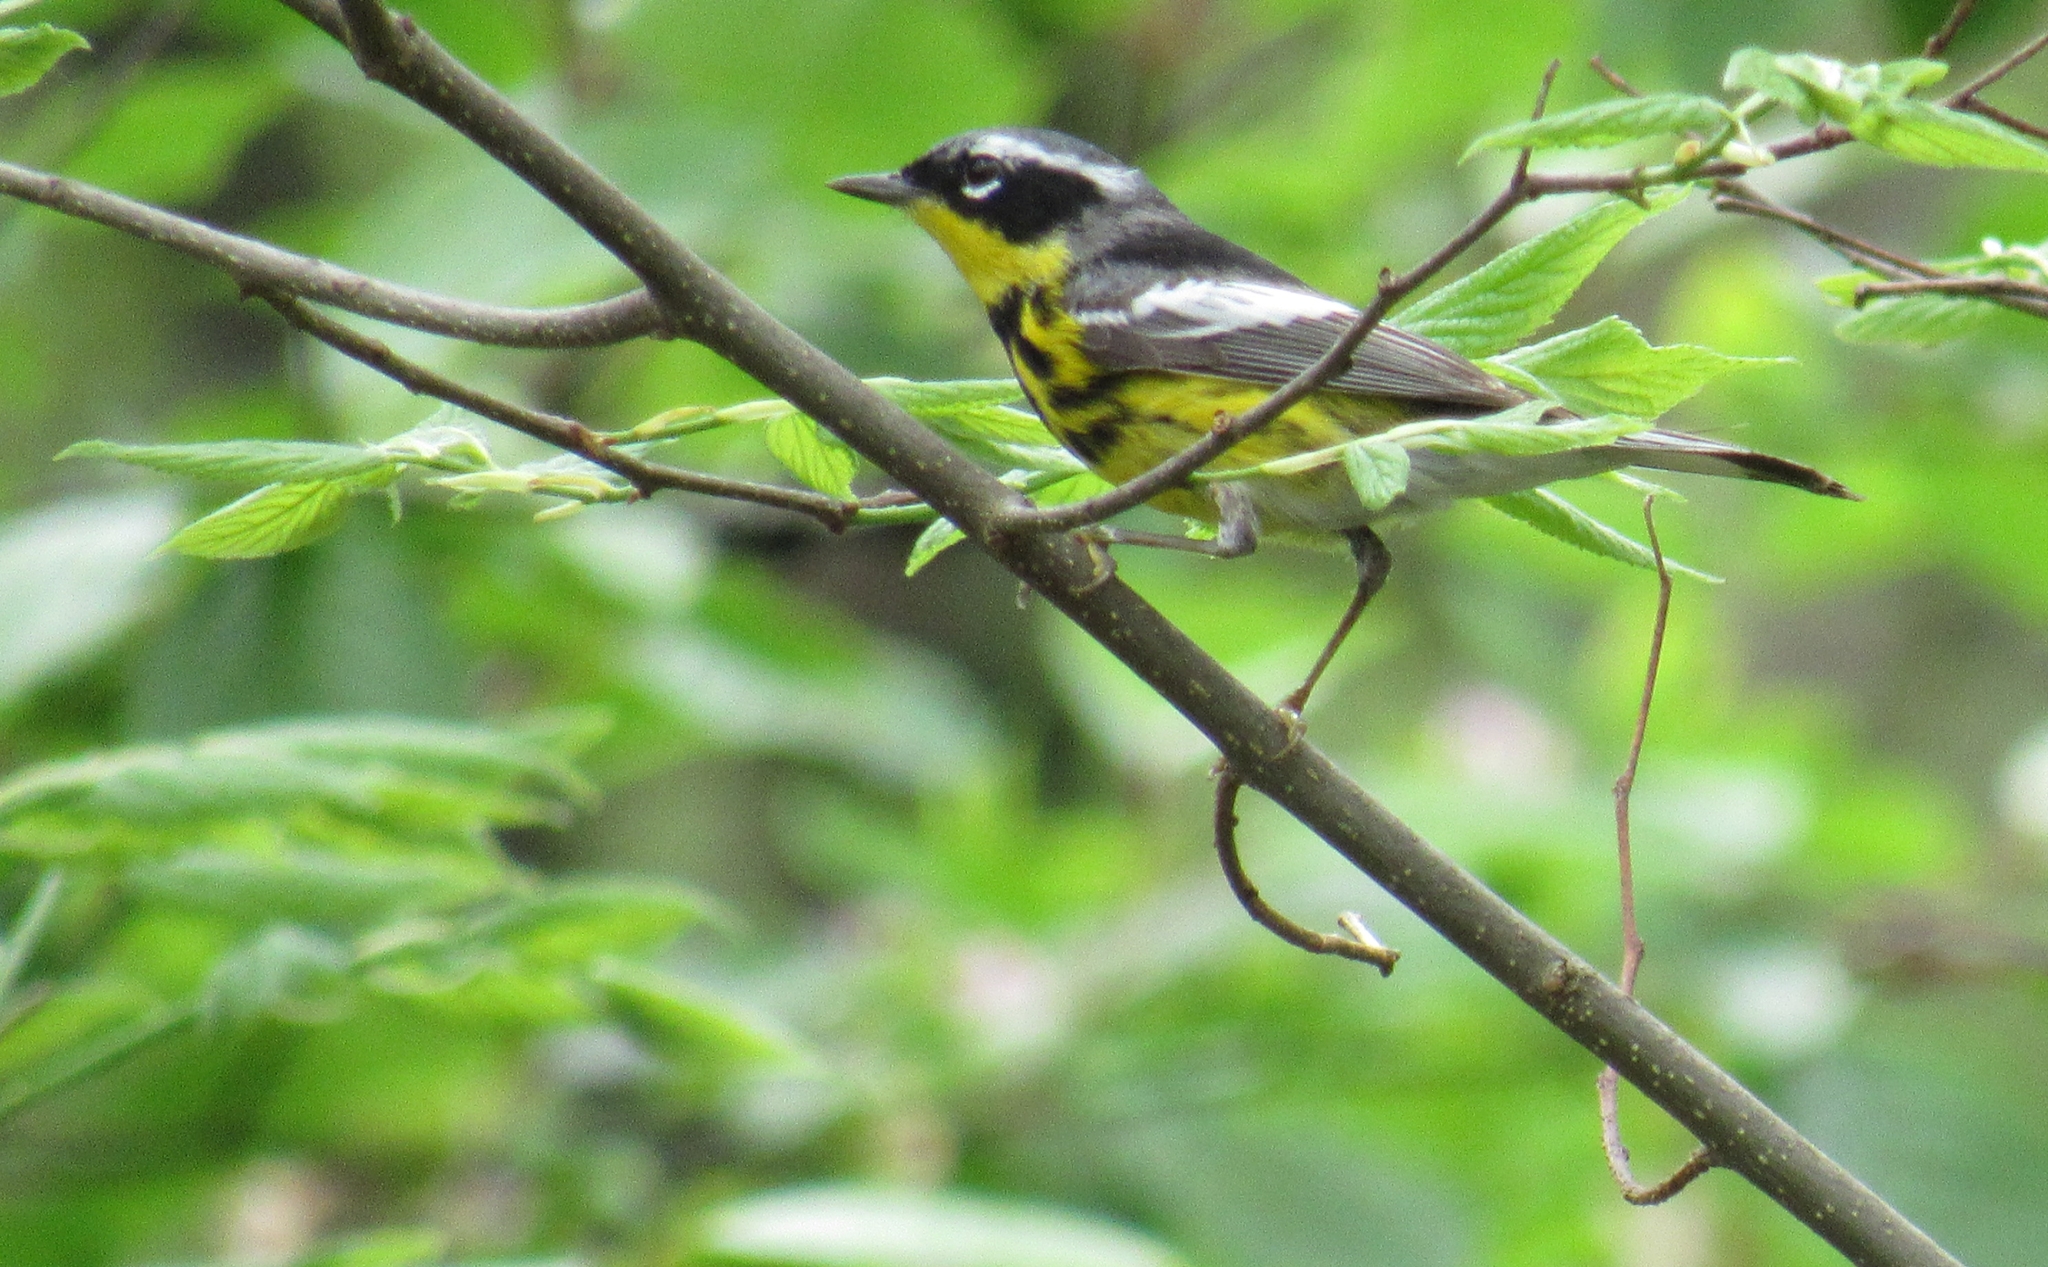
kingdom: Animalia
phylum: Chordata
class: Aves
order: Passeriformes
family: Parulidae
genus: Setophaga
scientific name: Setophaga magnolia
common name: Magnolia warbler
